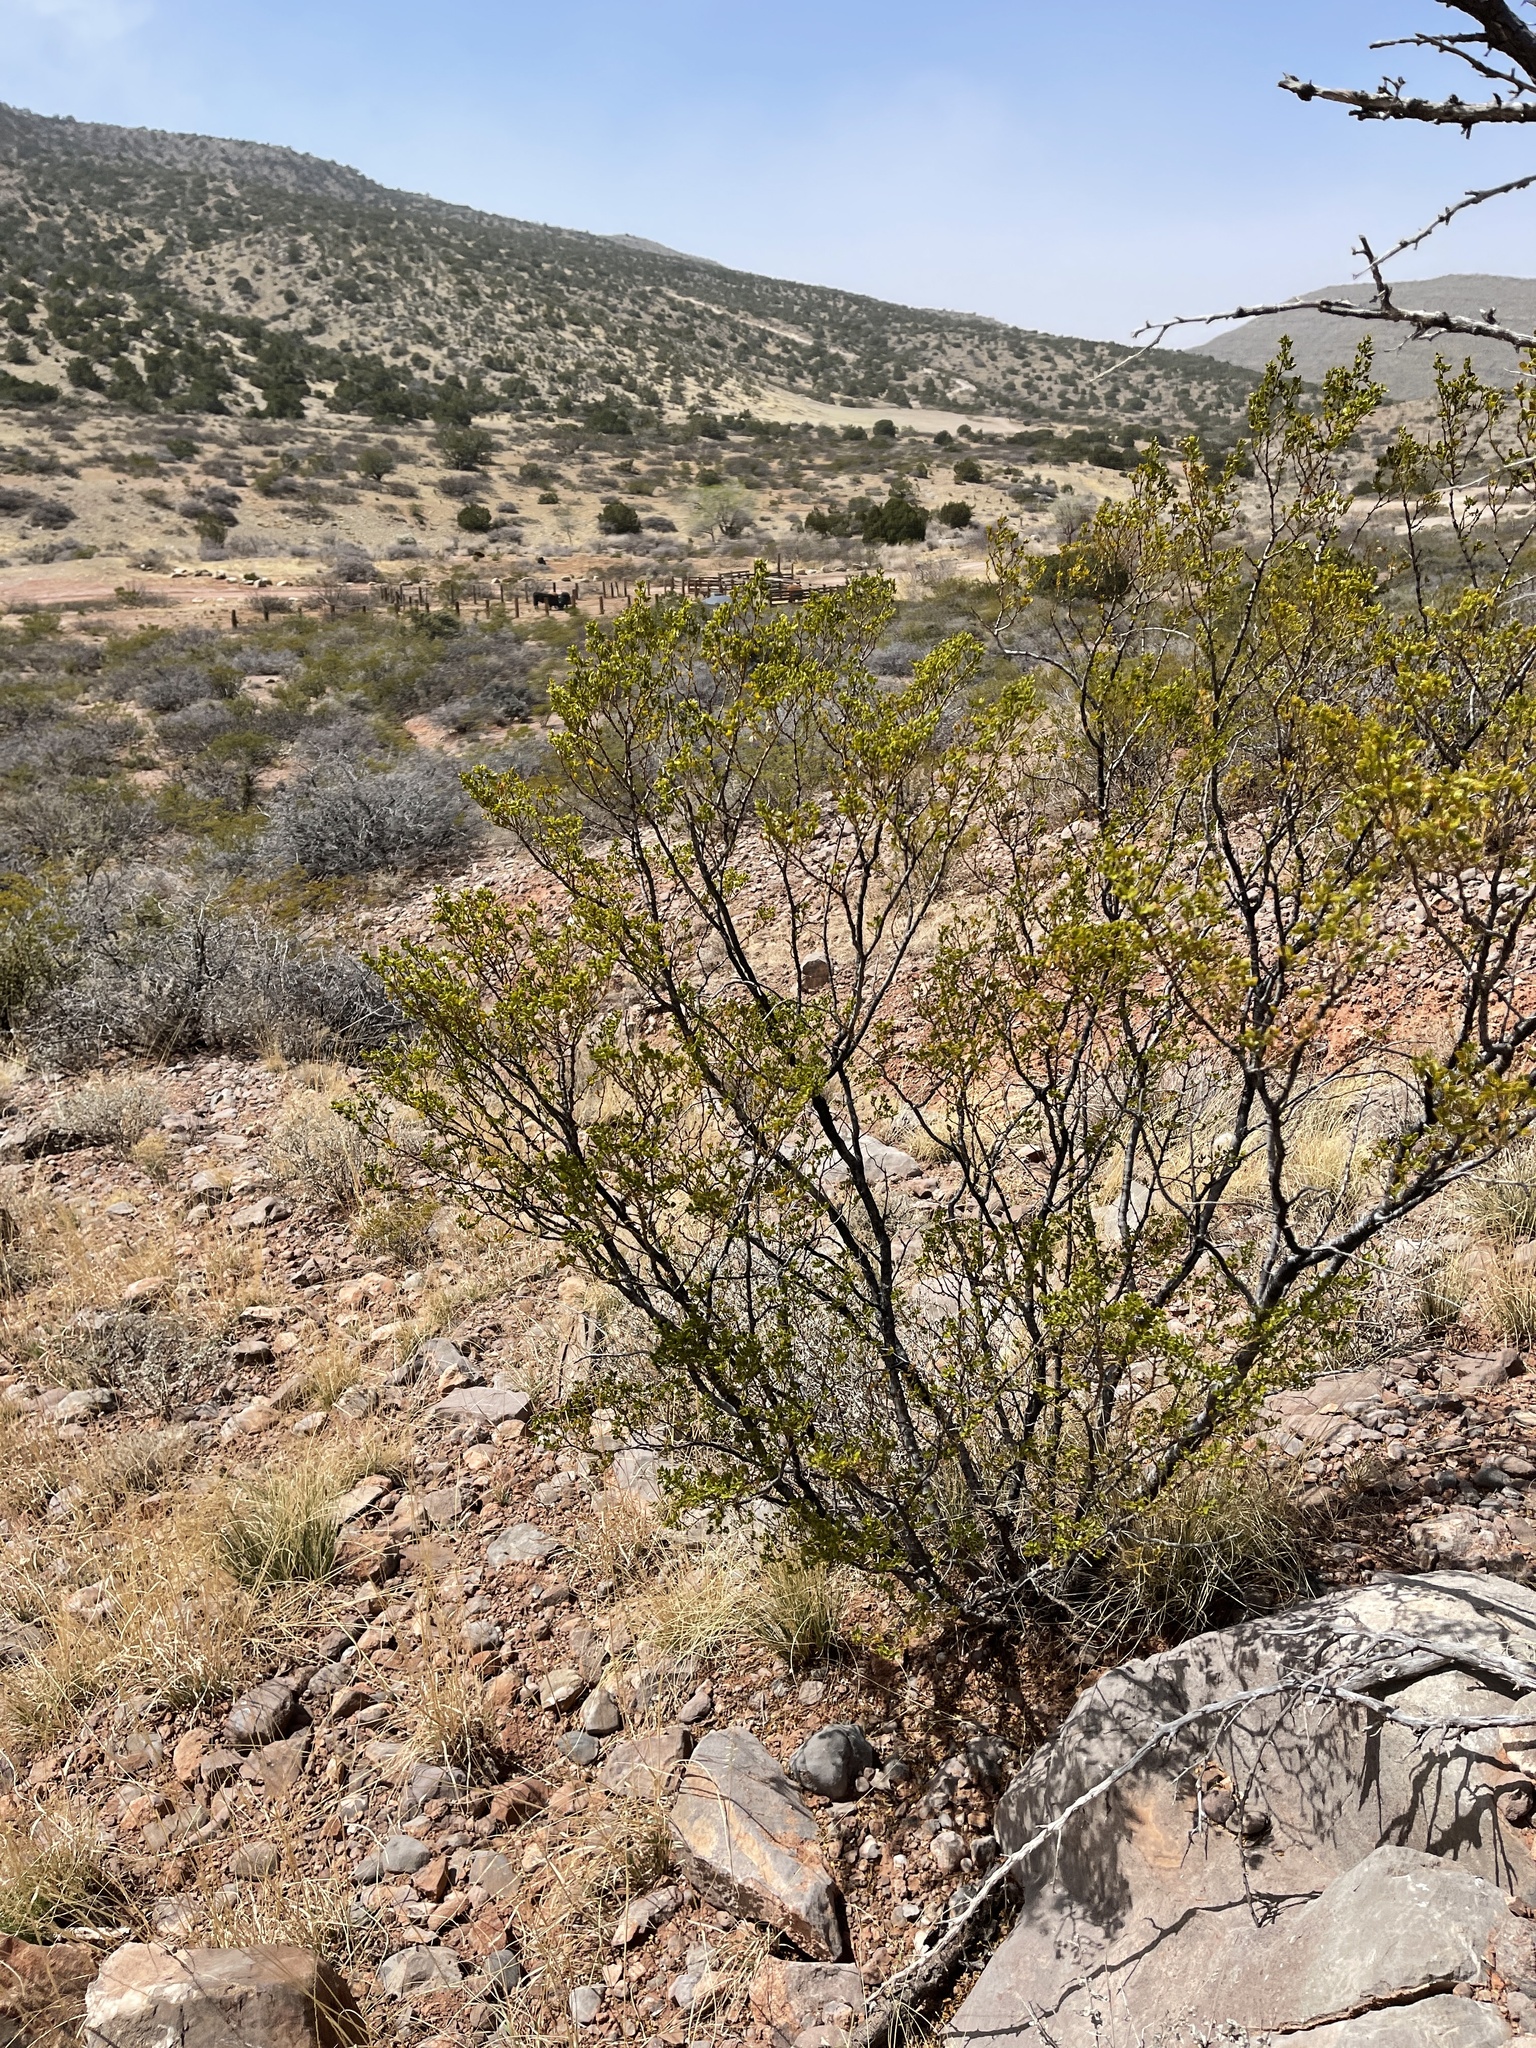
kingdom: Plantae
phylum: Tracheophyta
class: Magnoliopsida
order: Zygophyllales
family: Zygophyllaceae
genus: Larrea
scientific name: Larrea tridentata
